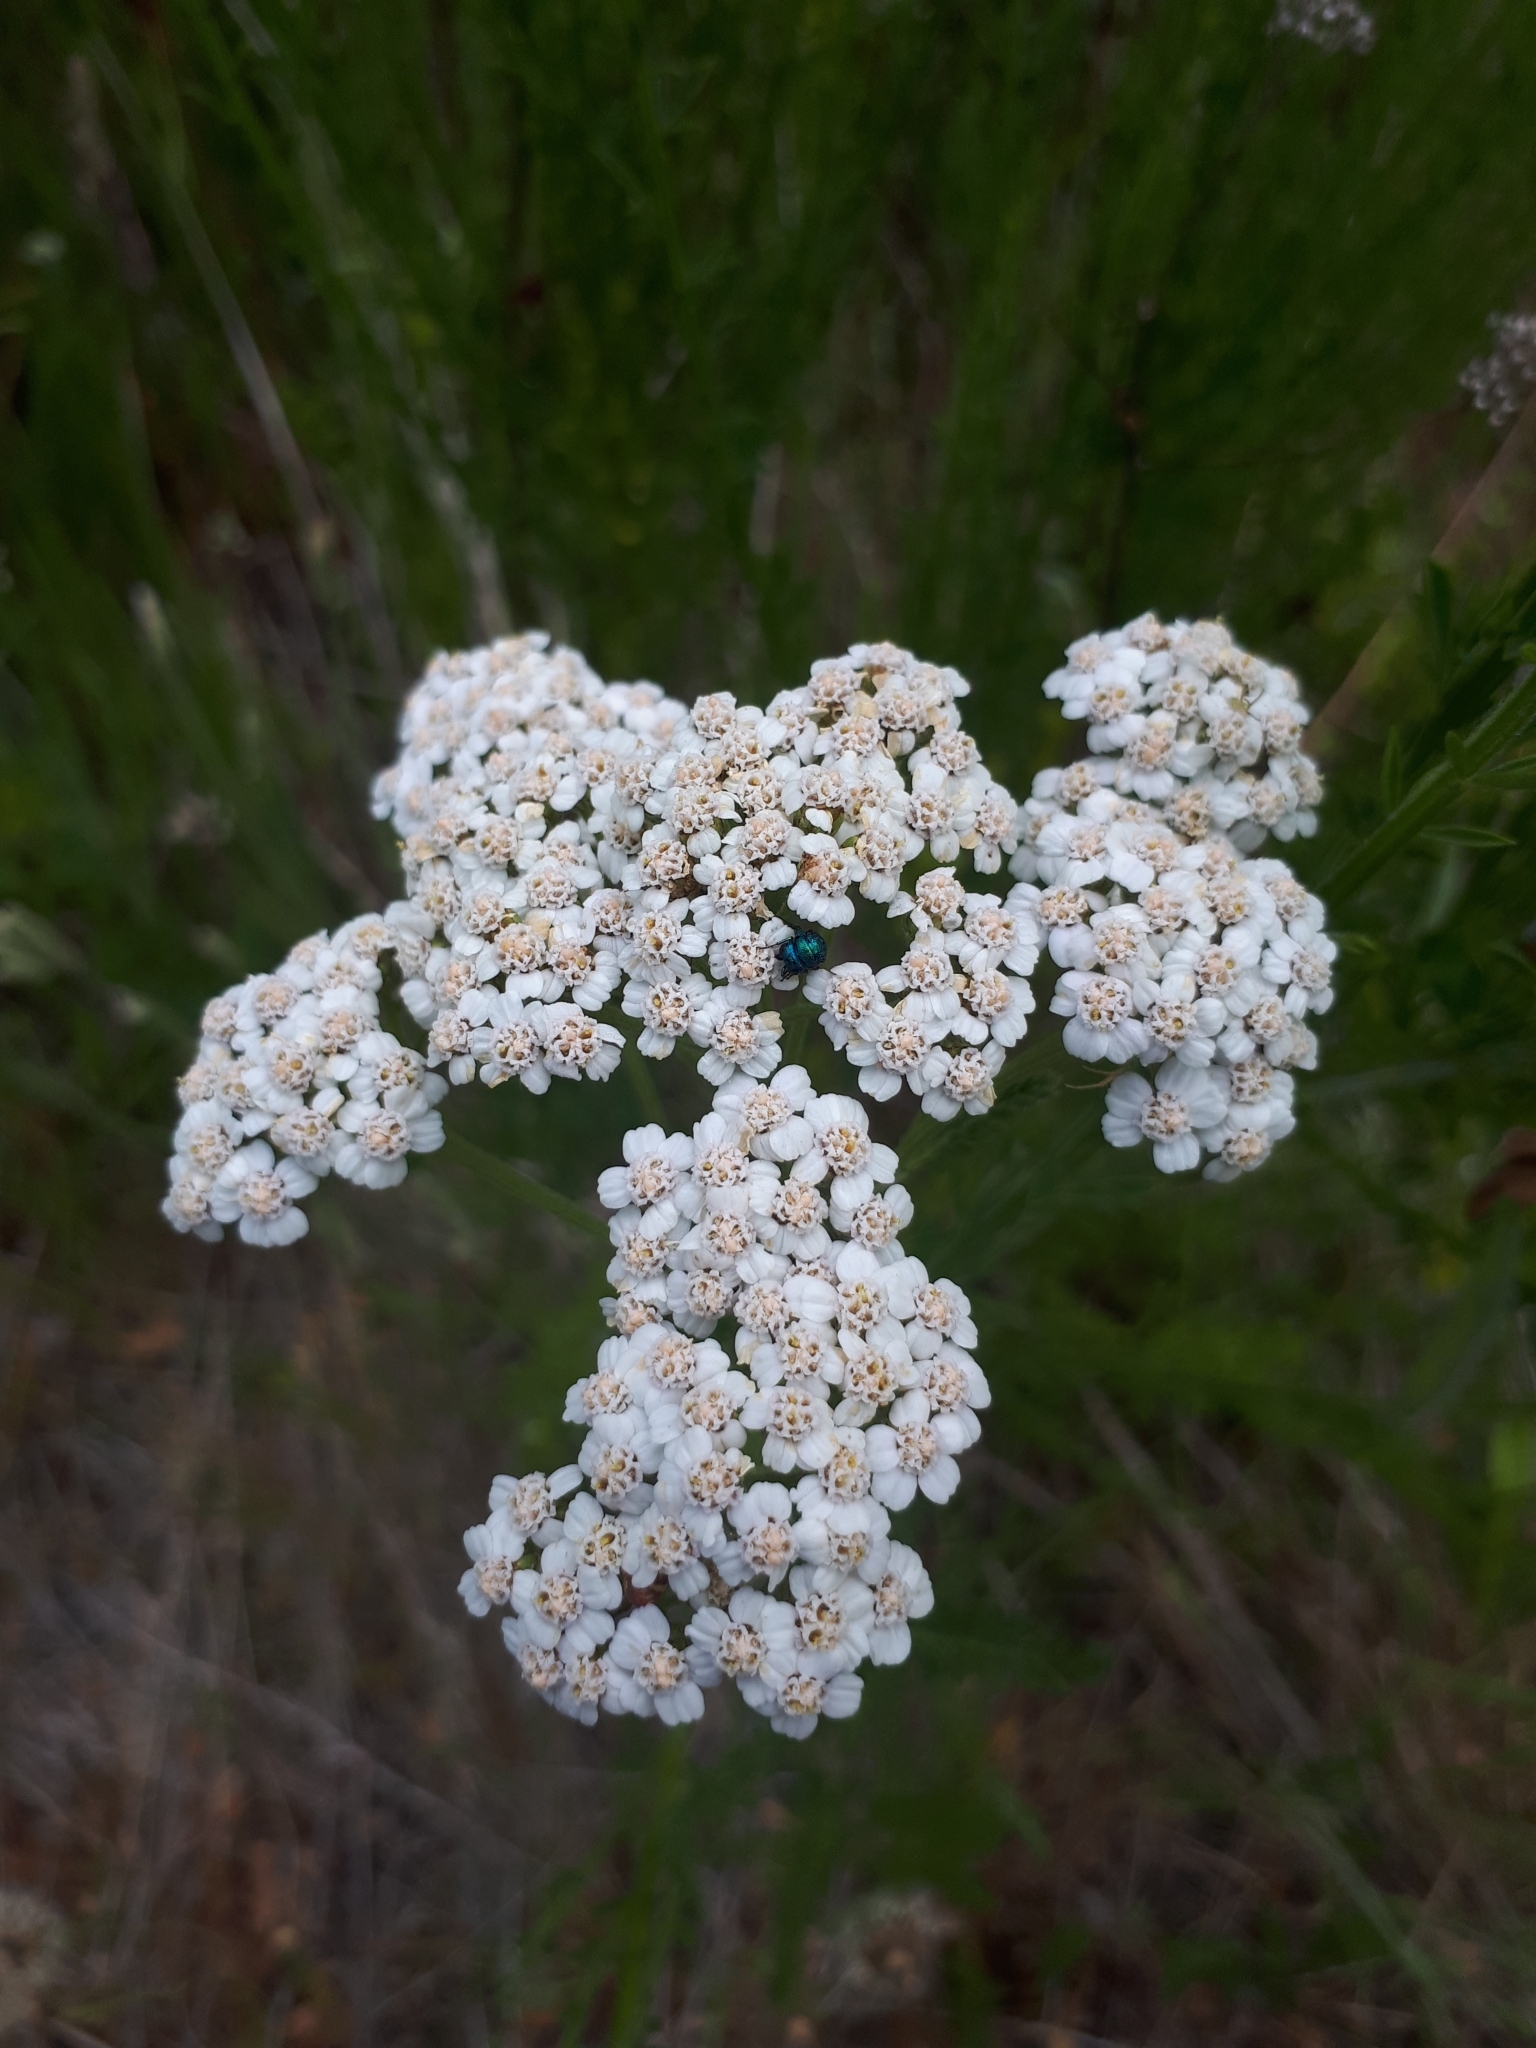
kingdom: Plantae
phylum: Tracheophyta
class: Magnoliopsida
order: Asterales
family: Asteraceae
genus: Achillea
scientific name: Achillea millefolium
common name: Yarrow
